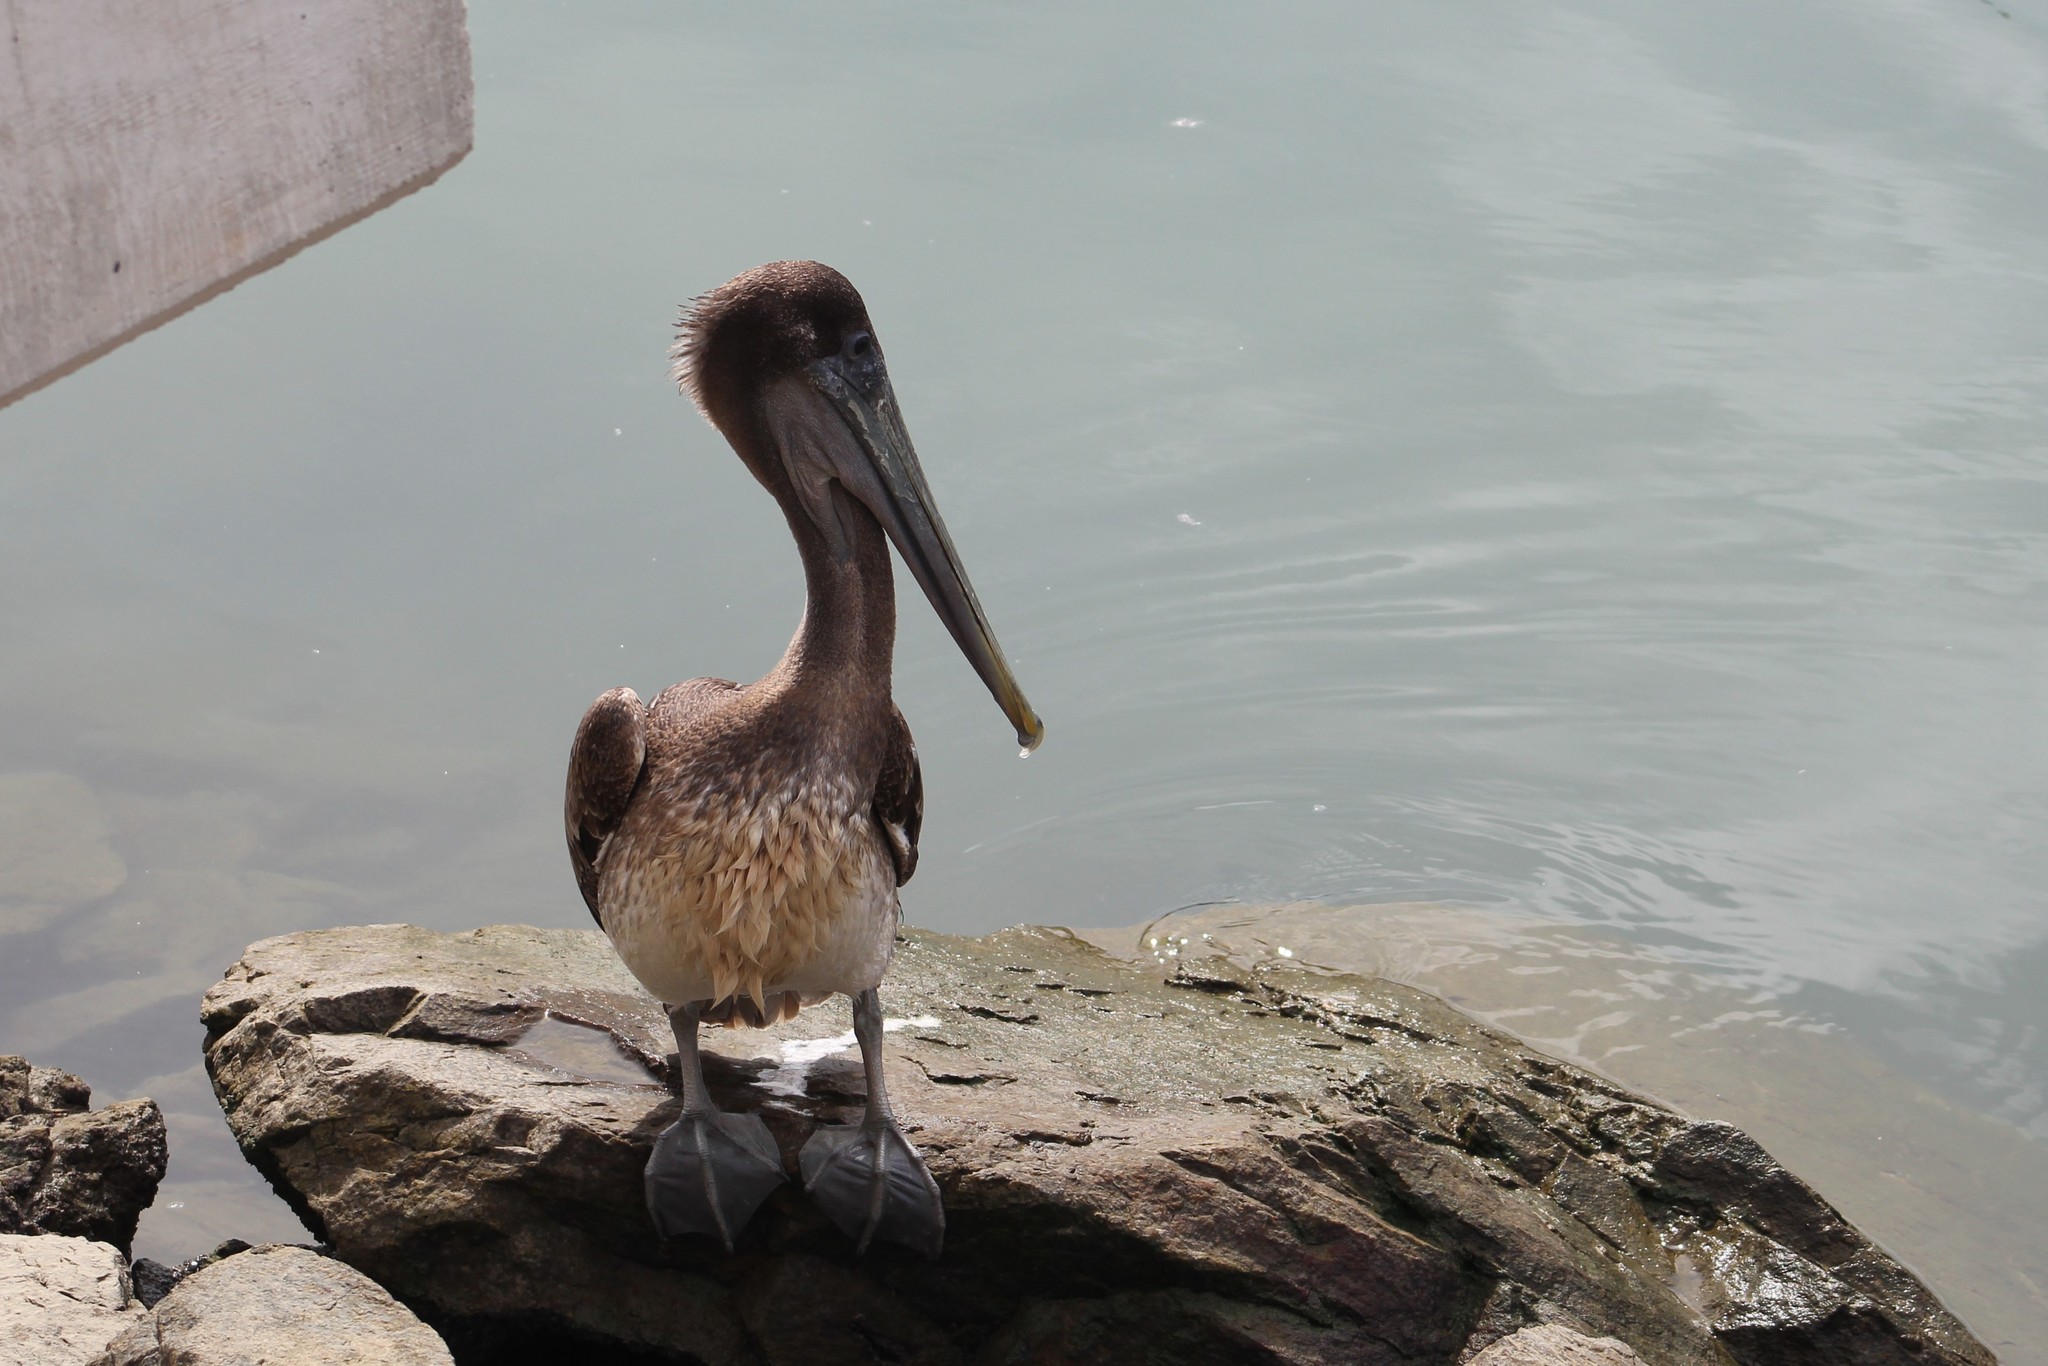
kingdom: Animalia
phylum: Chordata
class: Aves
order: Pelecaniformes
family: Pelecanidae
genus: Pelecanus
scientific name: Pelecanus occidentalis
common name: Brown pelican
